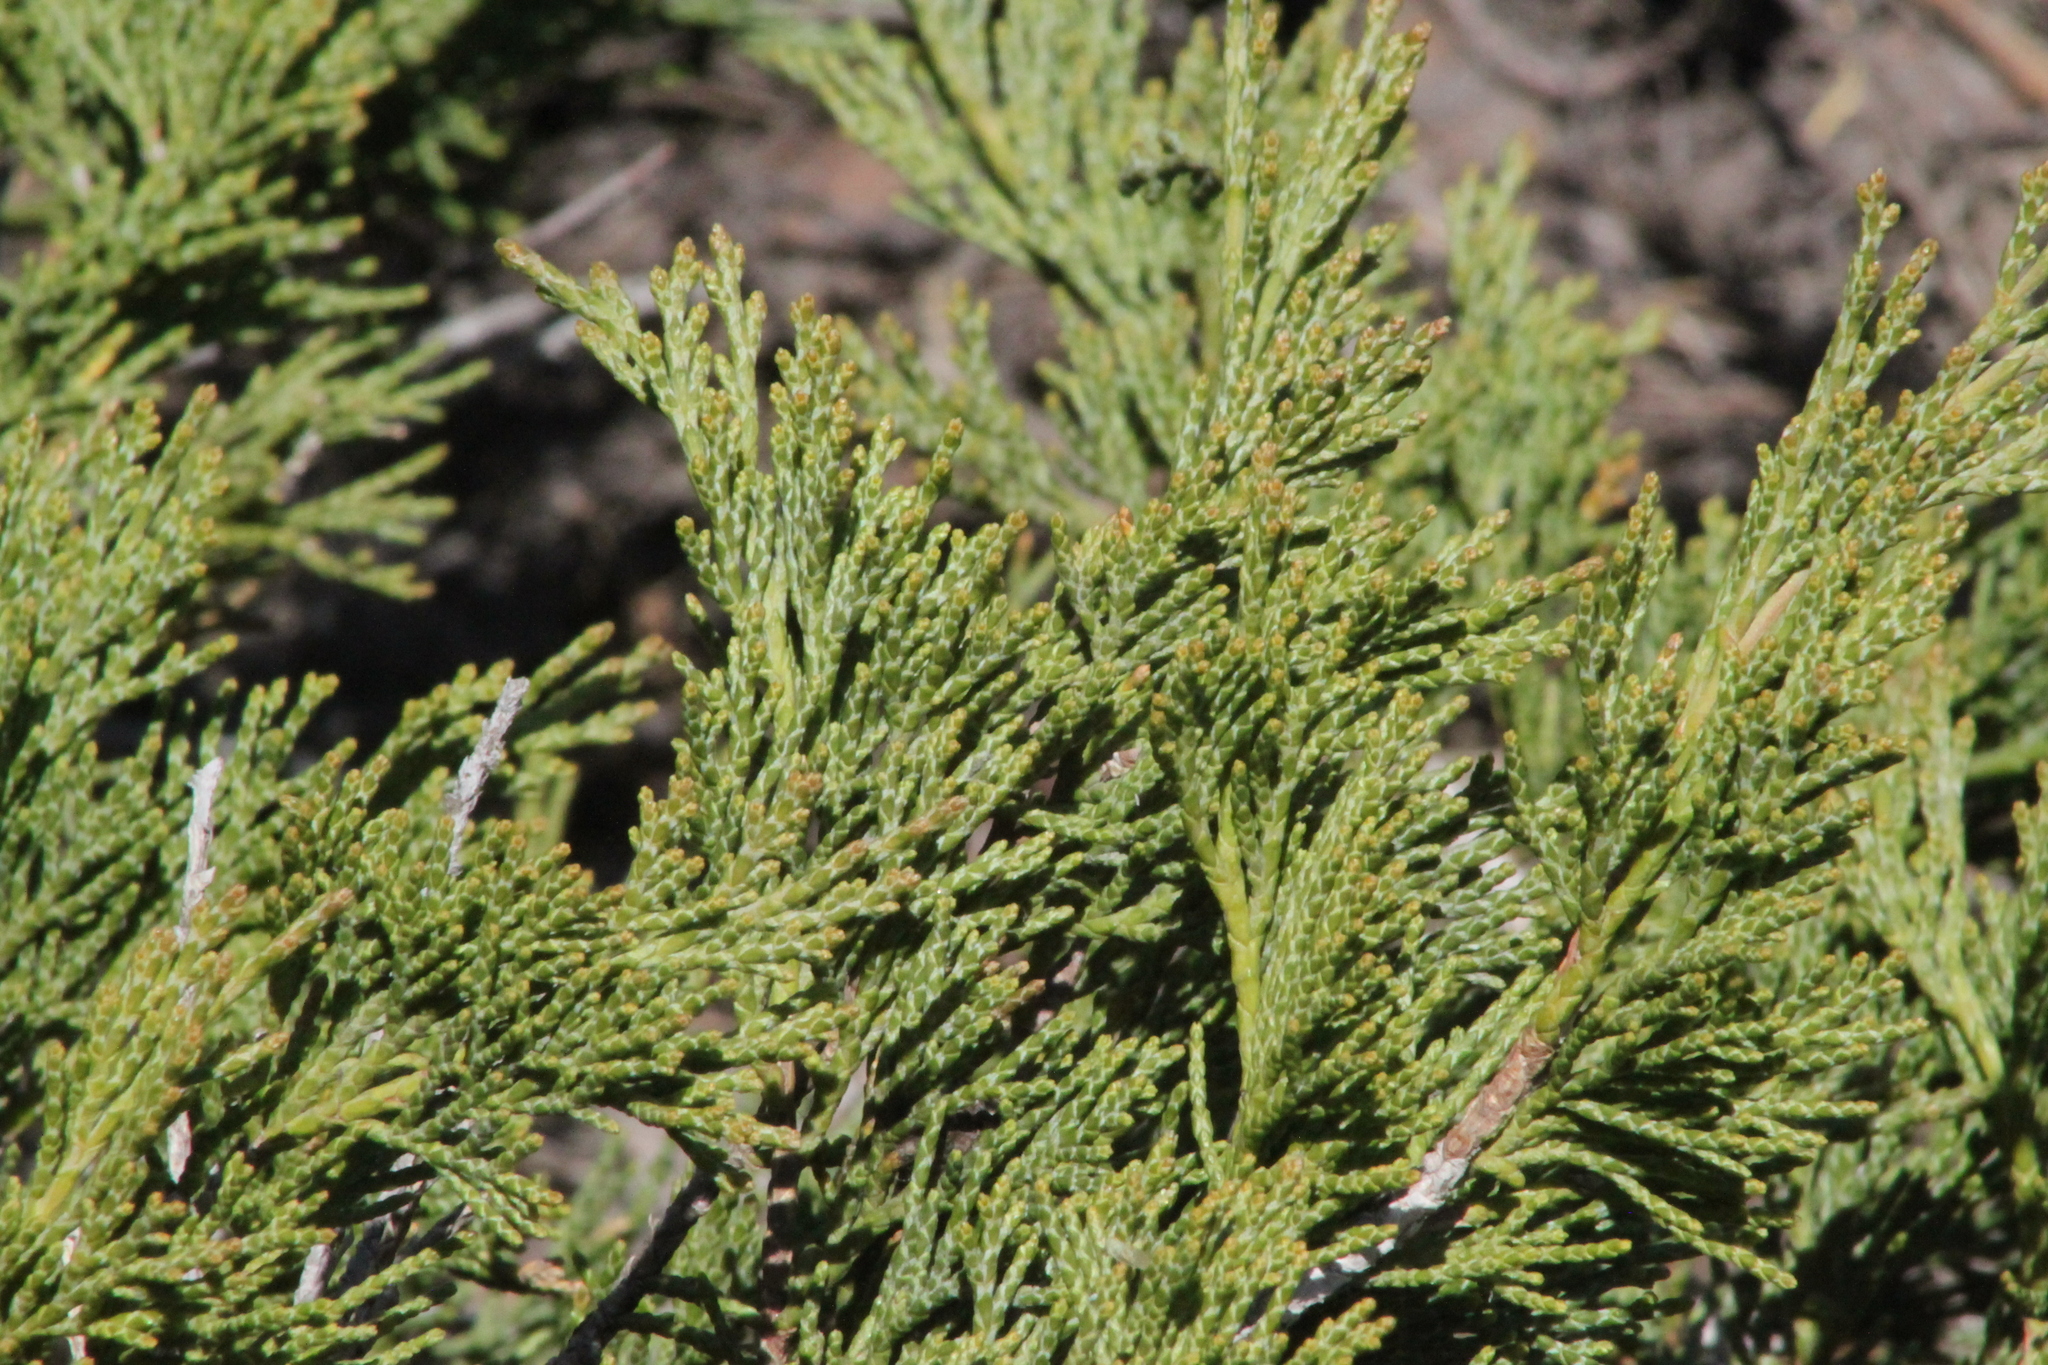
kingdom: Plantae
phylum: Tracheophyta
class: Pinopsida
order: Pinales
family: Cupressaceae
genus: Juniperus
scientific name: Juniperus sabina
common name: Savin
